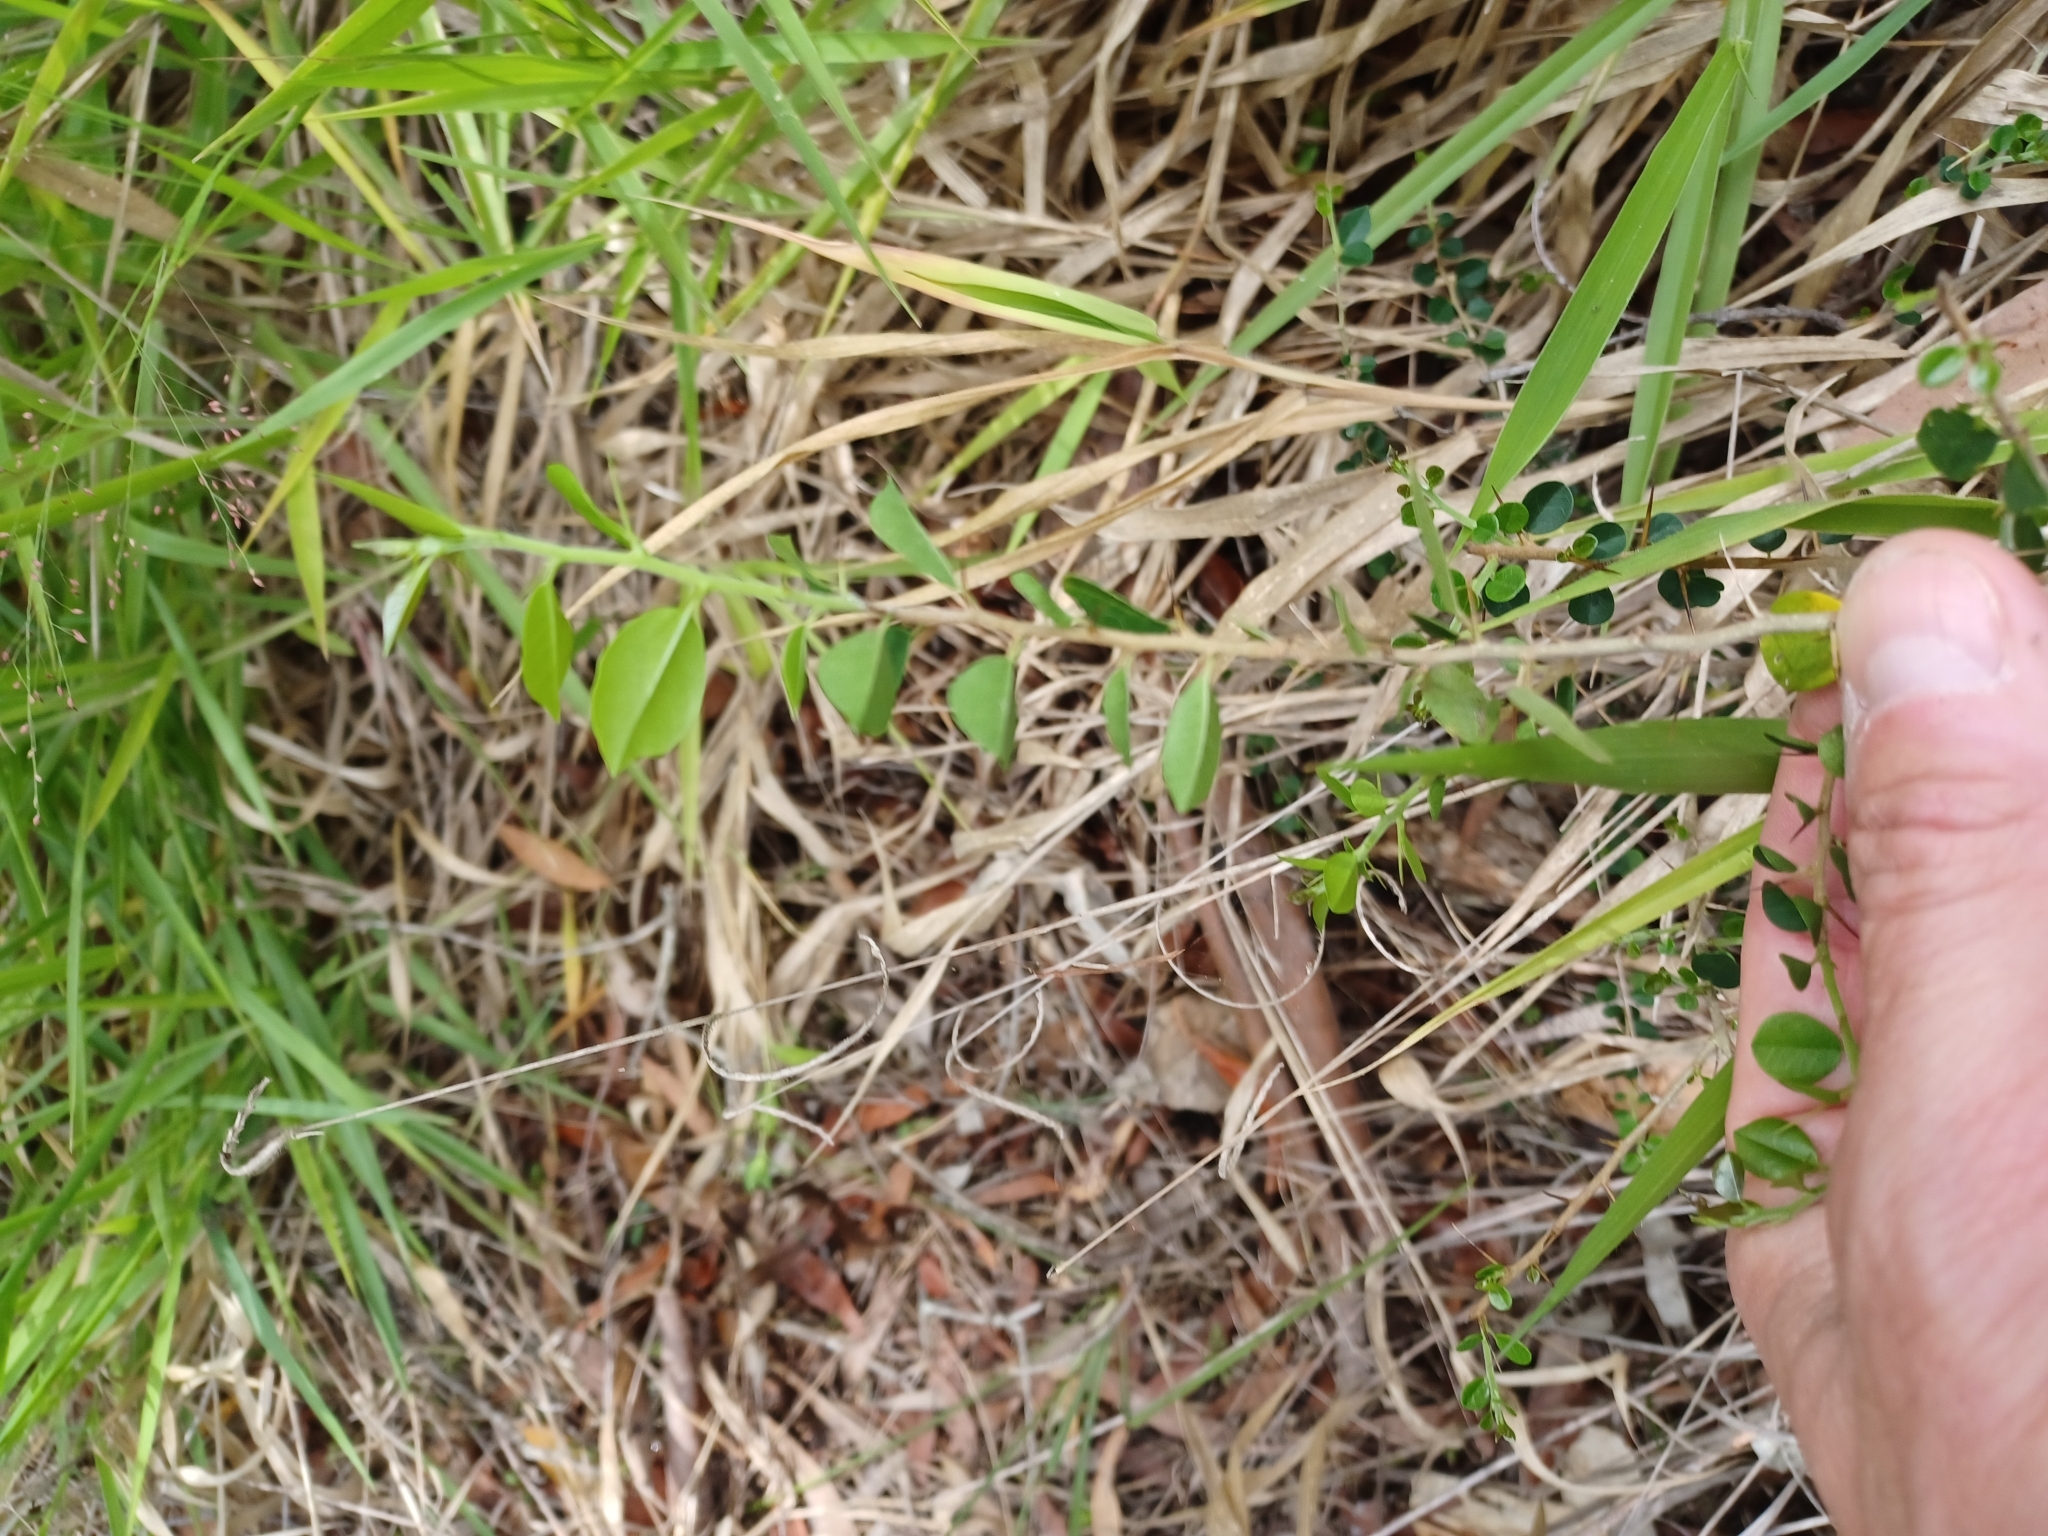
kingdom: Plantae
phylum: Tracheophyta
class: Magnoliopsida
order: Rosales
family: Moraceae
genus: Maclura
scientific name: Maclura cochinchinensis
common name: Cockspurthorn
